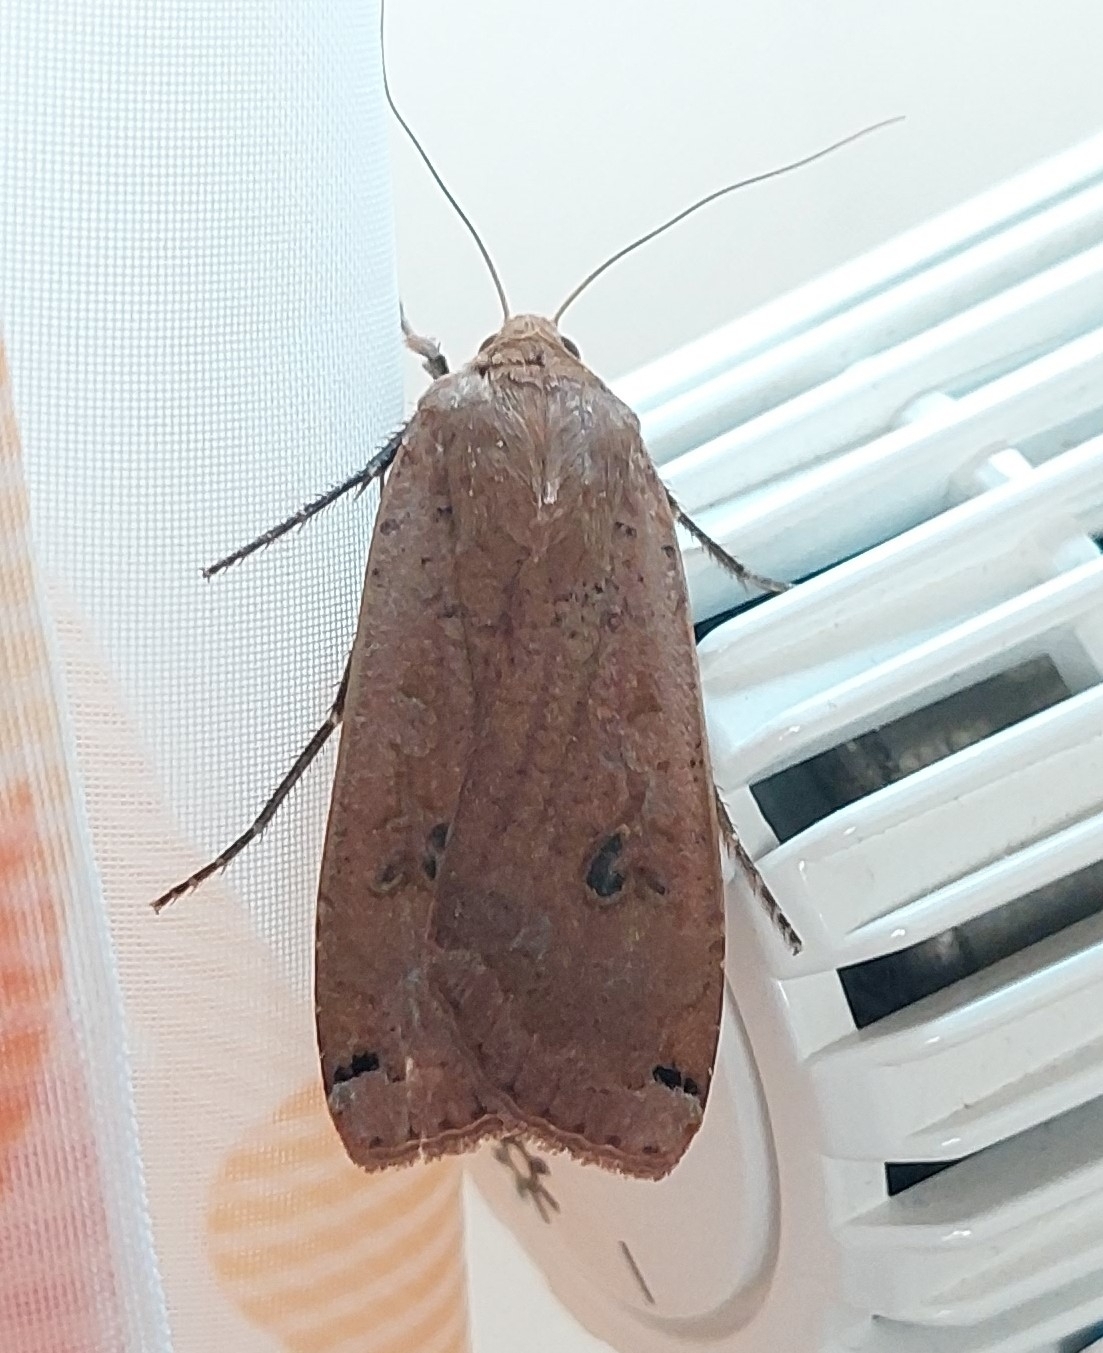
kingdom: Animalia
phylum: Arthropoda
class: Insecta
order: Lepidoptera
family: Noctuidae
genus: Noctua
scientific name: Noctua pronuba
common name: Large yellow underwing
